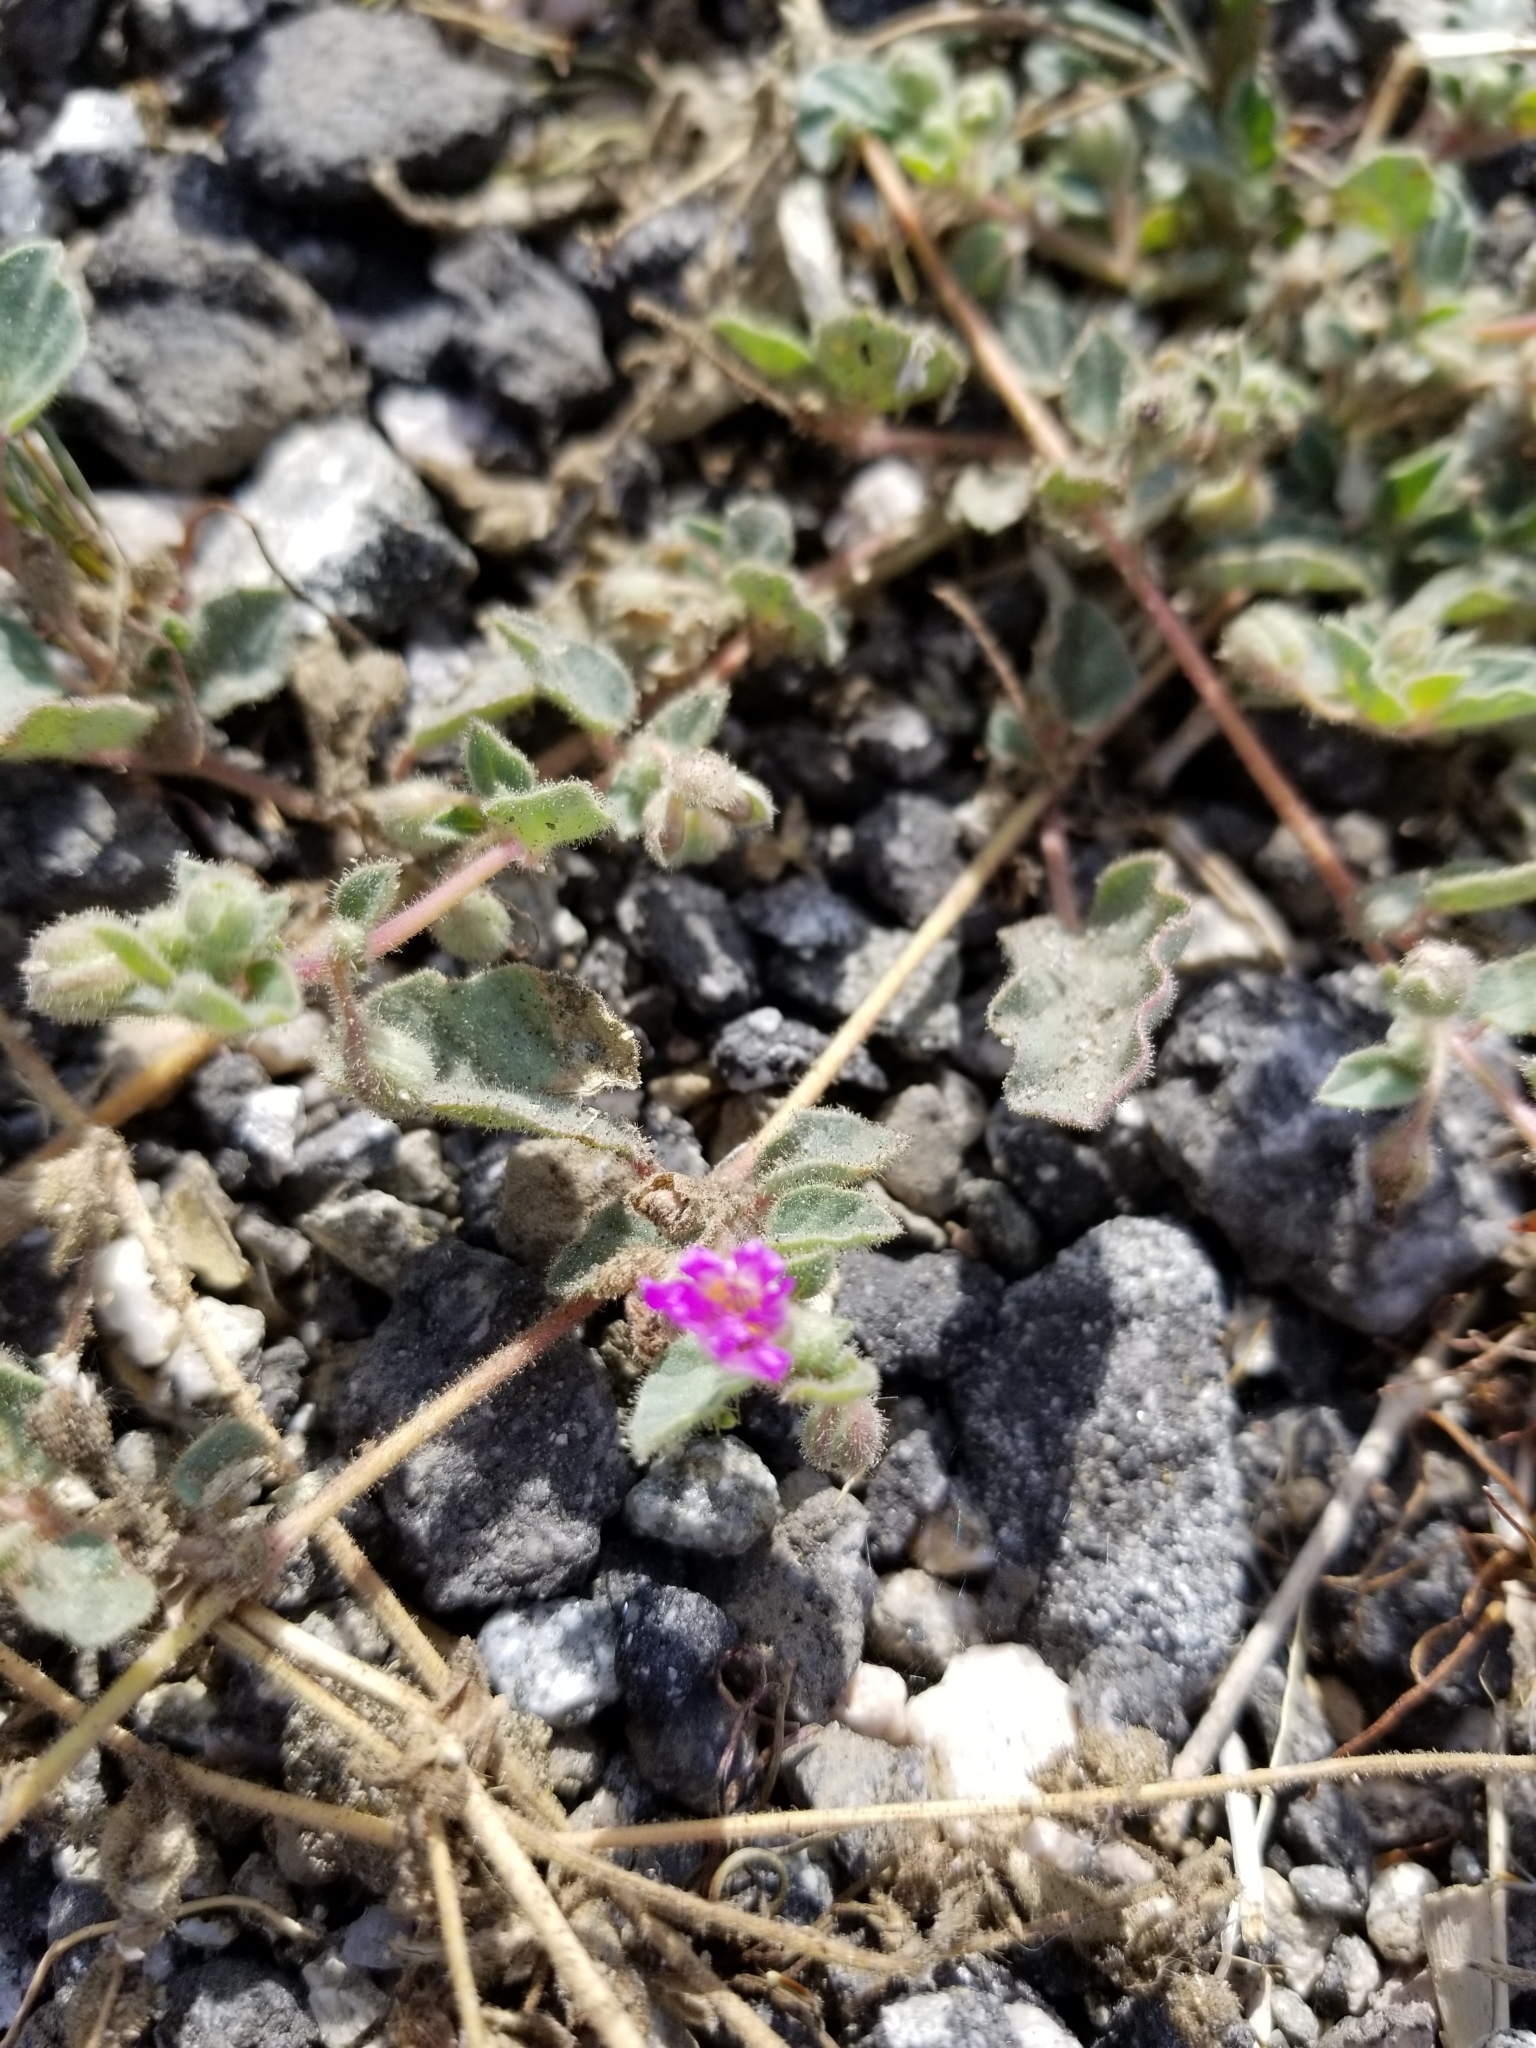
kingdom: Plantae
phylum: Tracheophyta
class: Magnoliopsida
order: Caryophyllales
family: Nyctaginaceae
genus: Allionia
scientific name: Allionia incarnata
